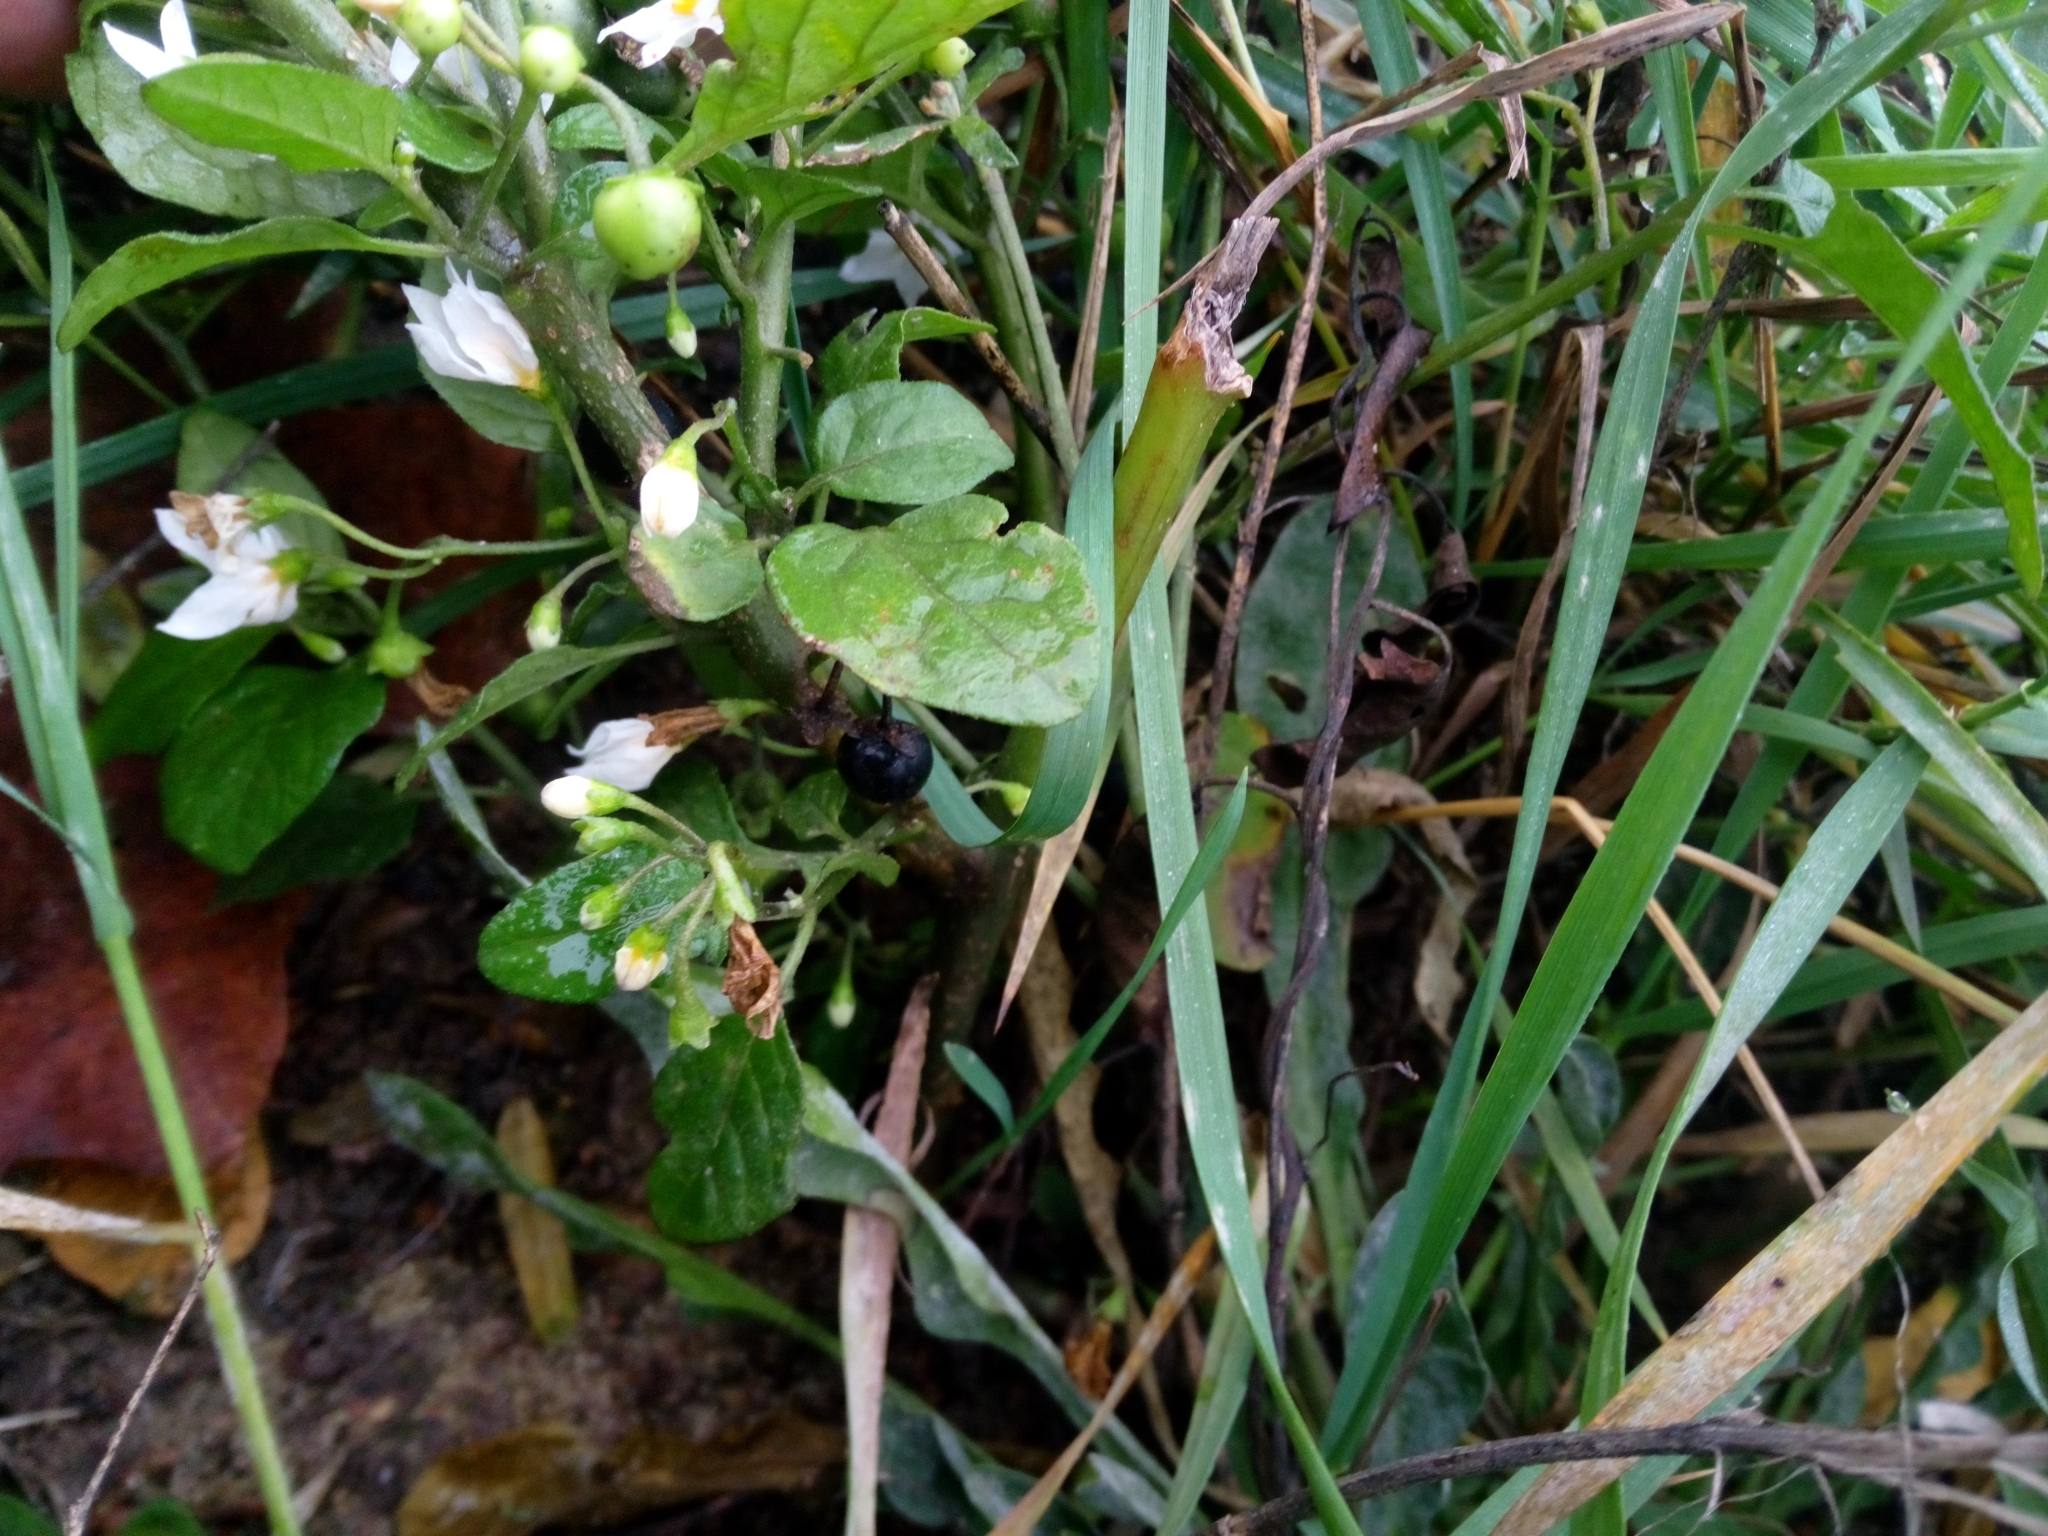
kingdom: Plantae
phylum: Tracheophyta
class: Magnoliopsida
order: Solanales
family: Solanaceae
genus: Solanum
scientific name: Solanum nigrum
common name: Black nightshade
